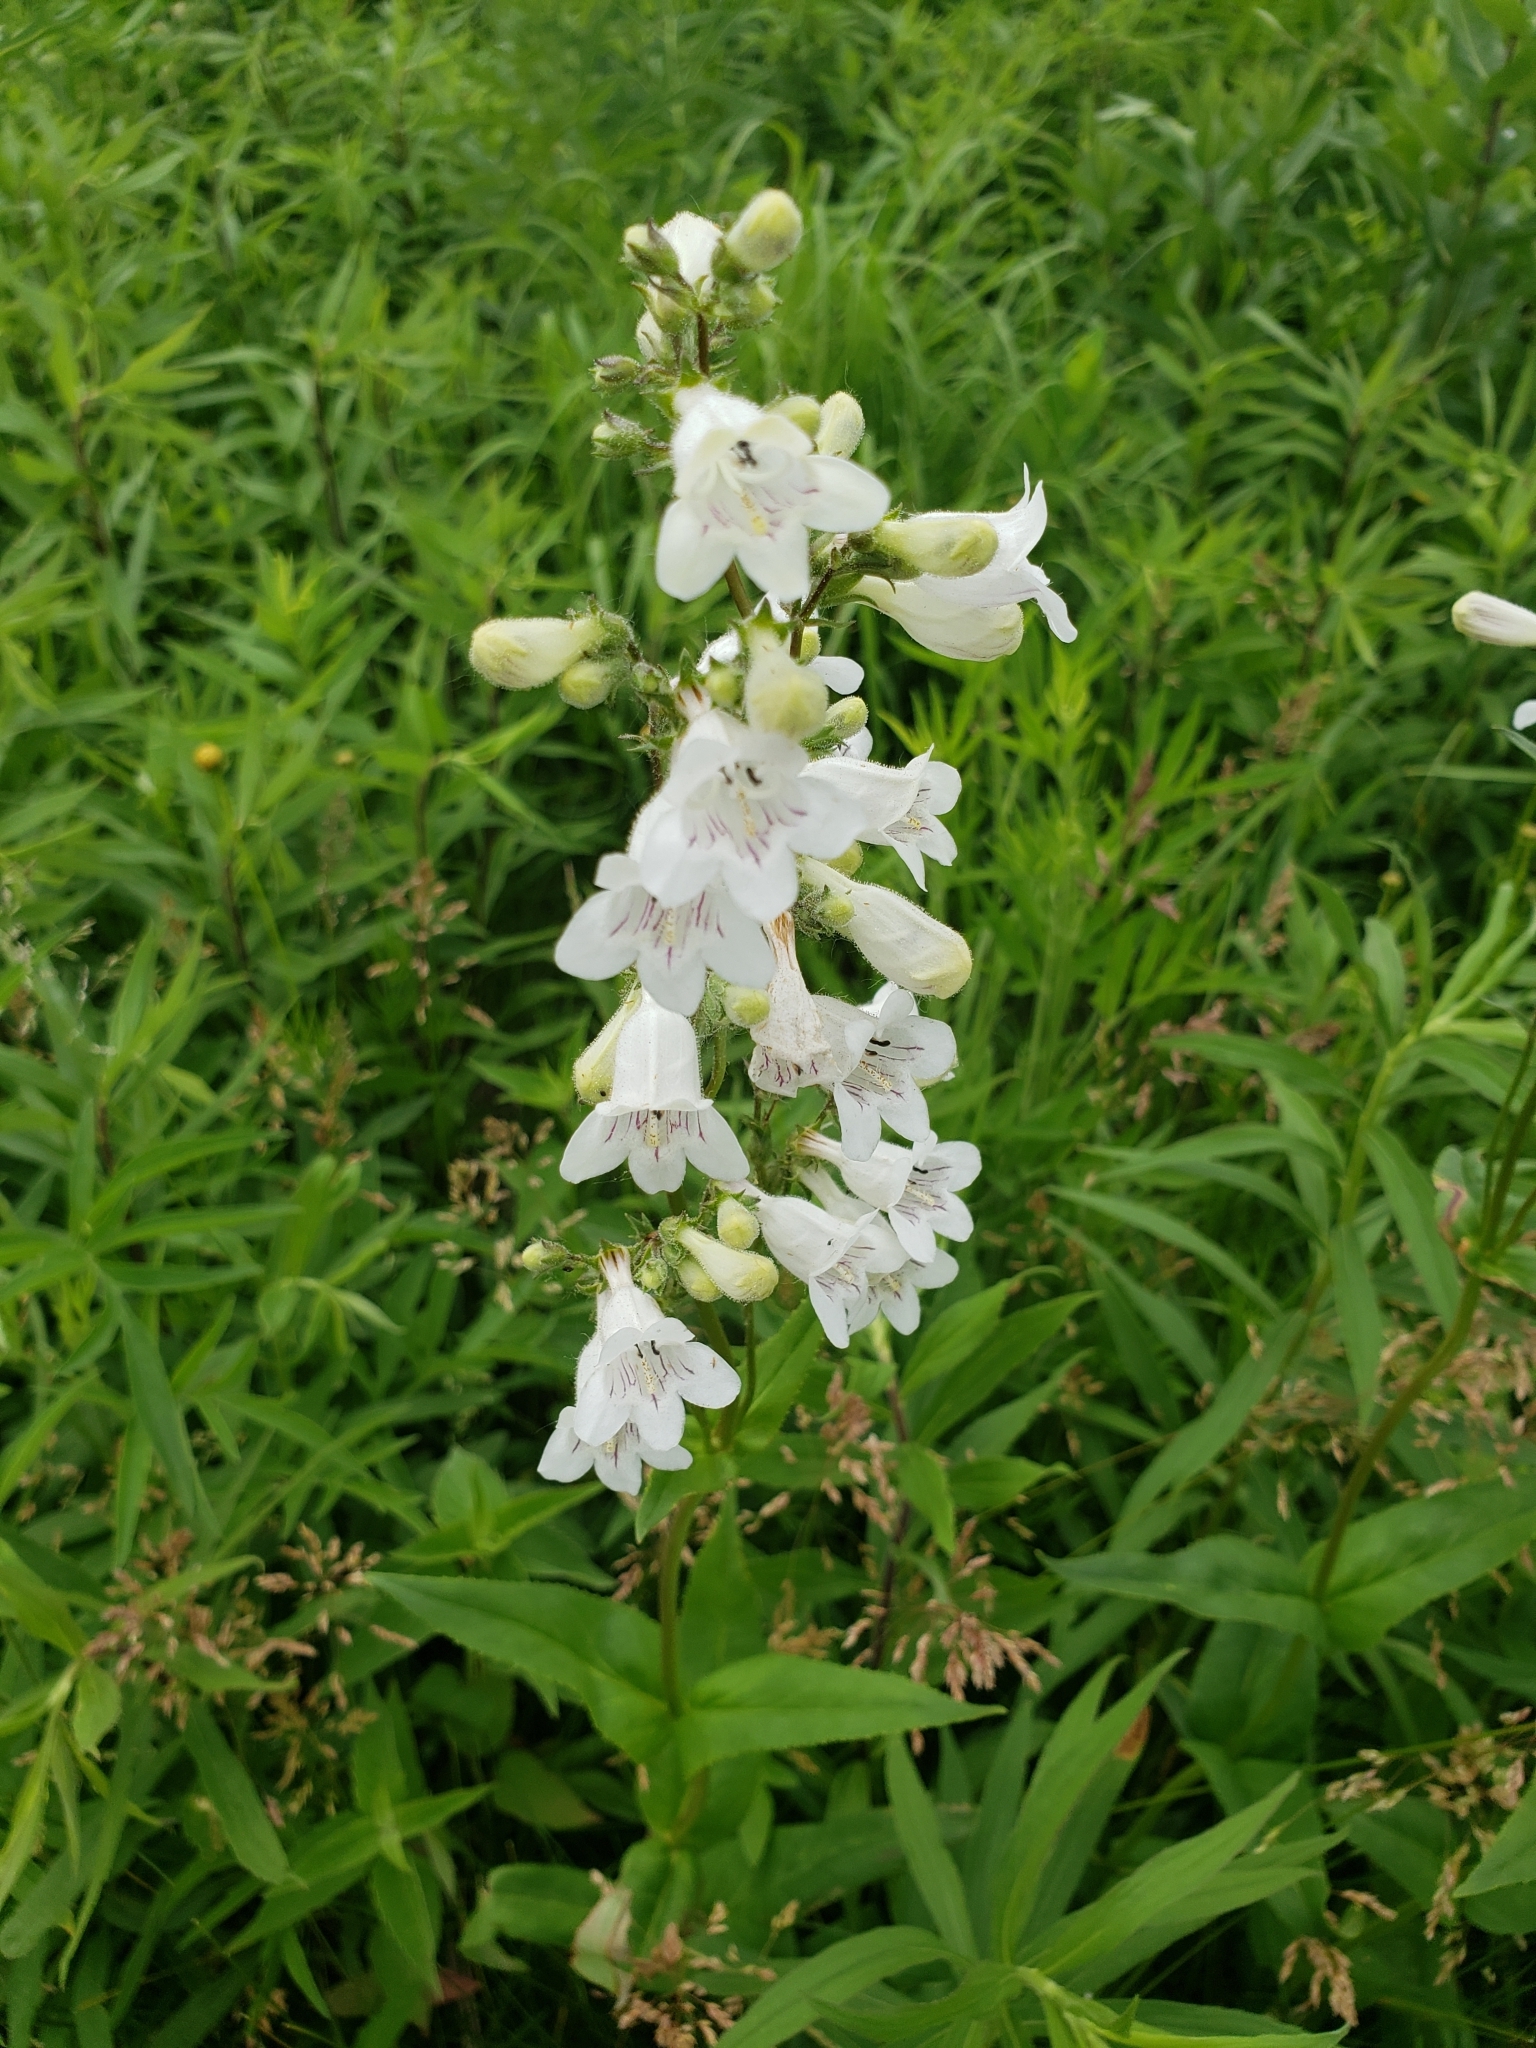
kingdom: Plantae
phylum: Tracheophyta
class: Magnoliopsida
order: Lamiales
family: Plantaginaceae
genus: Penstemon
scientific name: Penstemon digitalis
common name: Foxglove beardtongue
